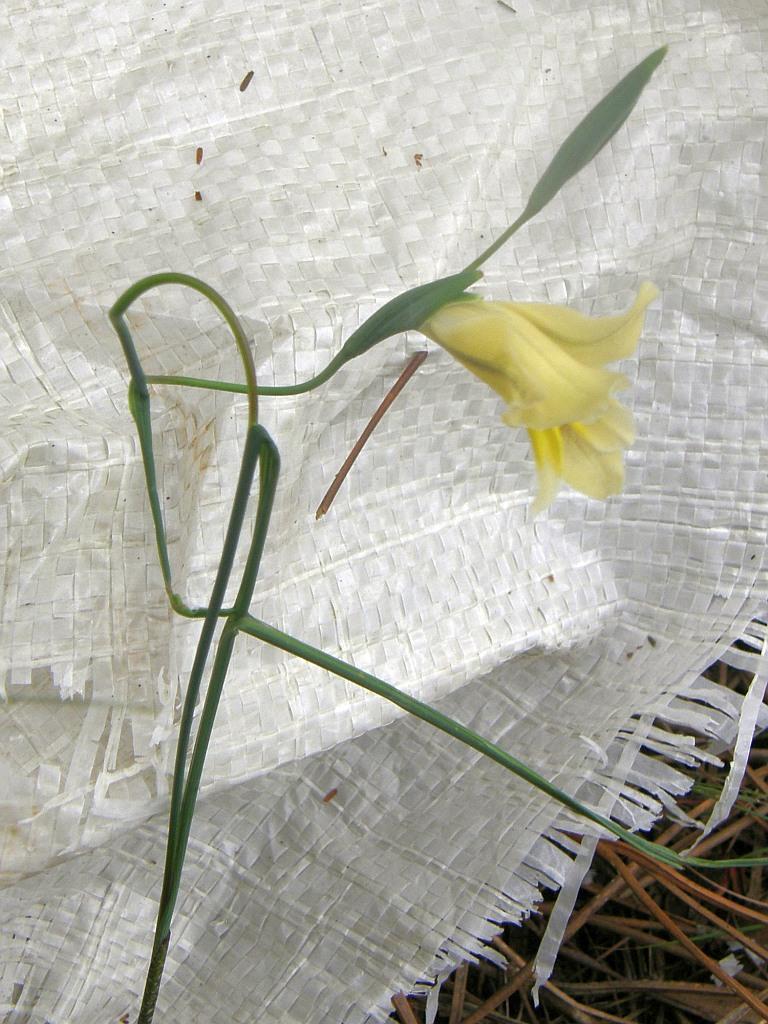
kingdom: Plantae
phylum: Tracheophyta
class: Liliopsida
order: Asparagales
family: Iridaceae
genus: Gladiolus
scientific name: Gladiolus carinatus
